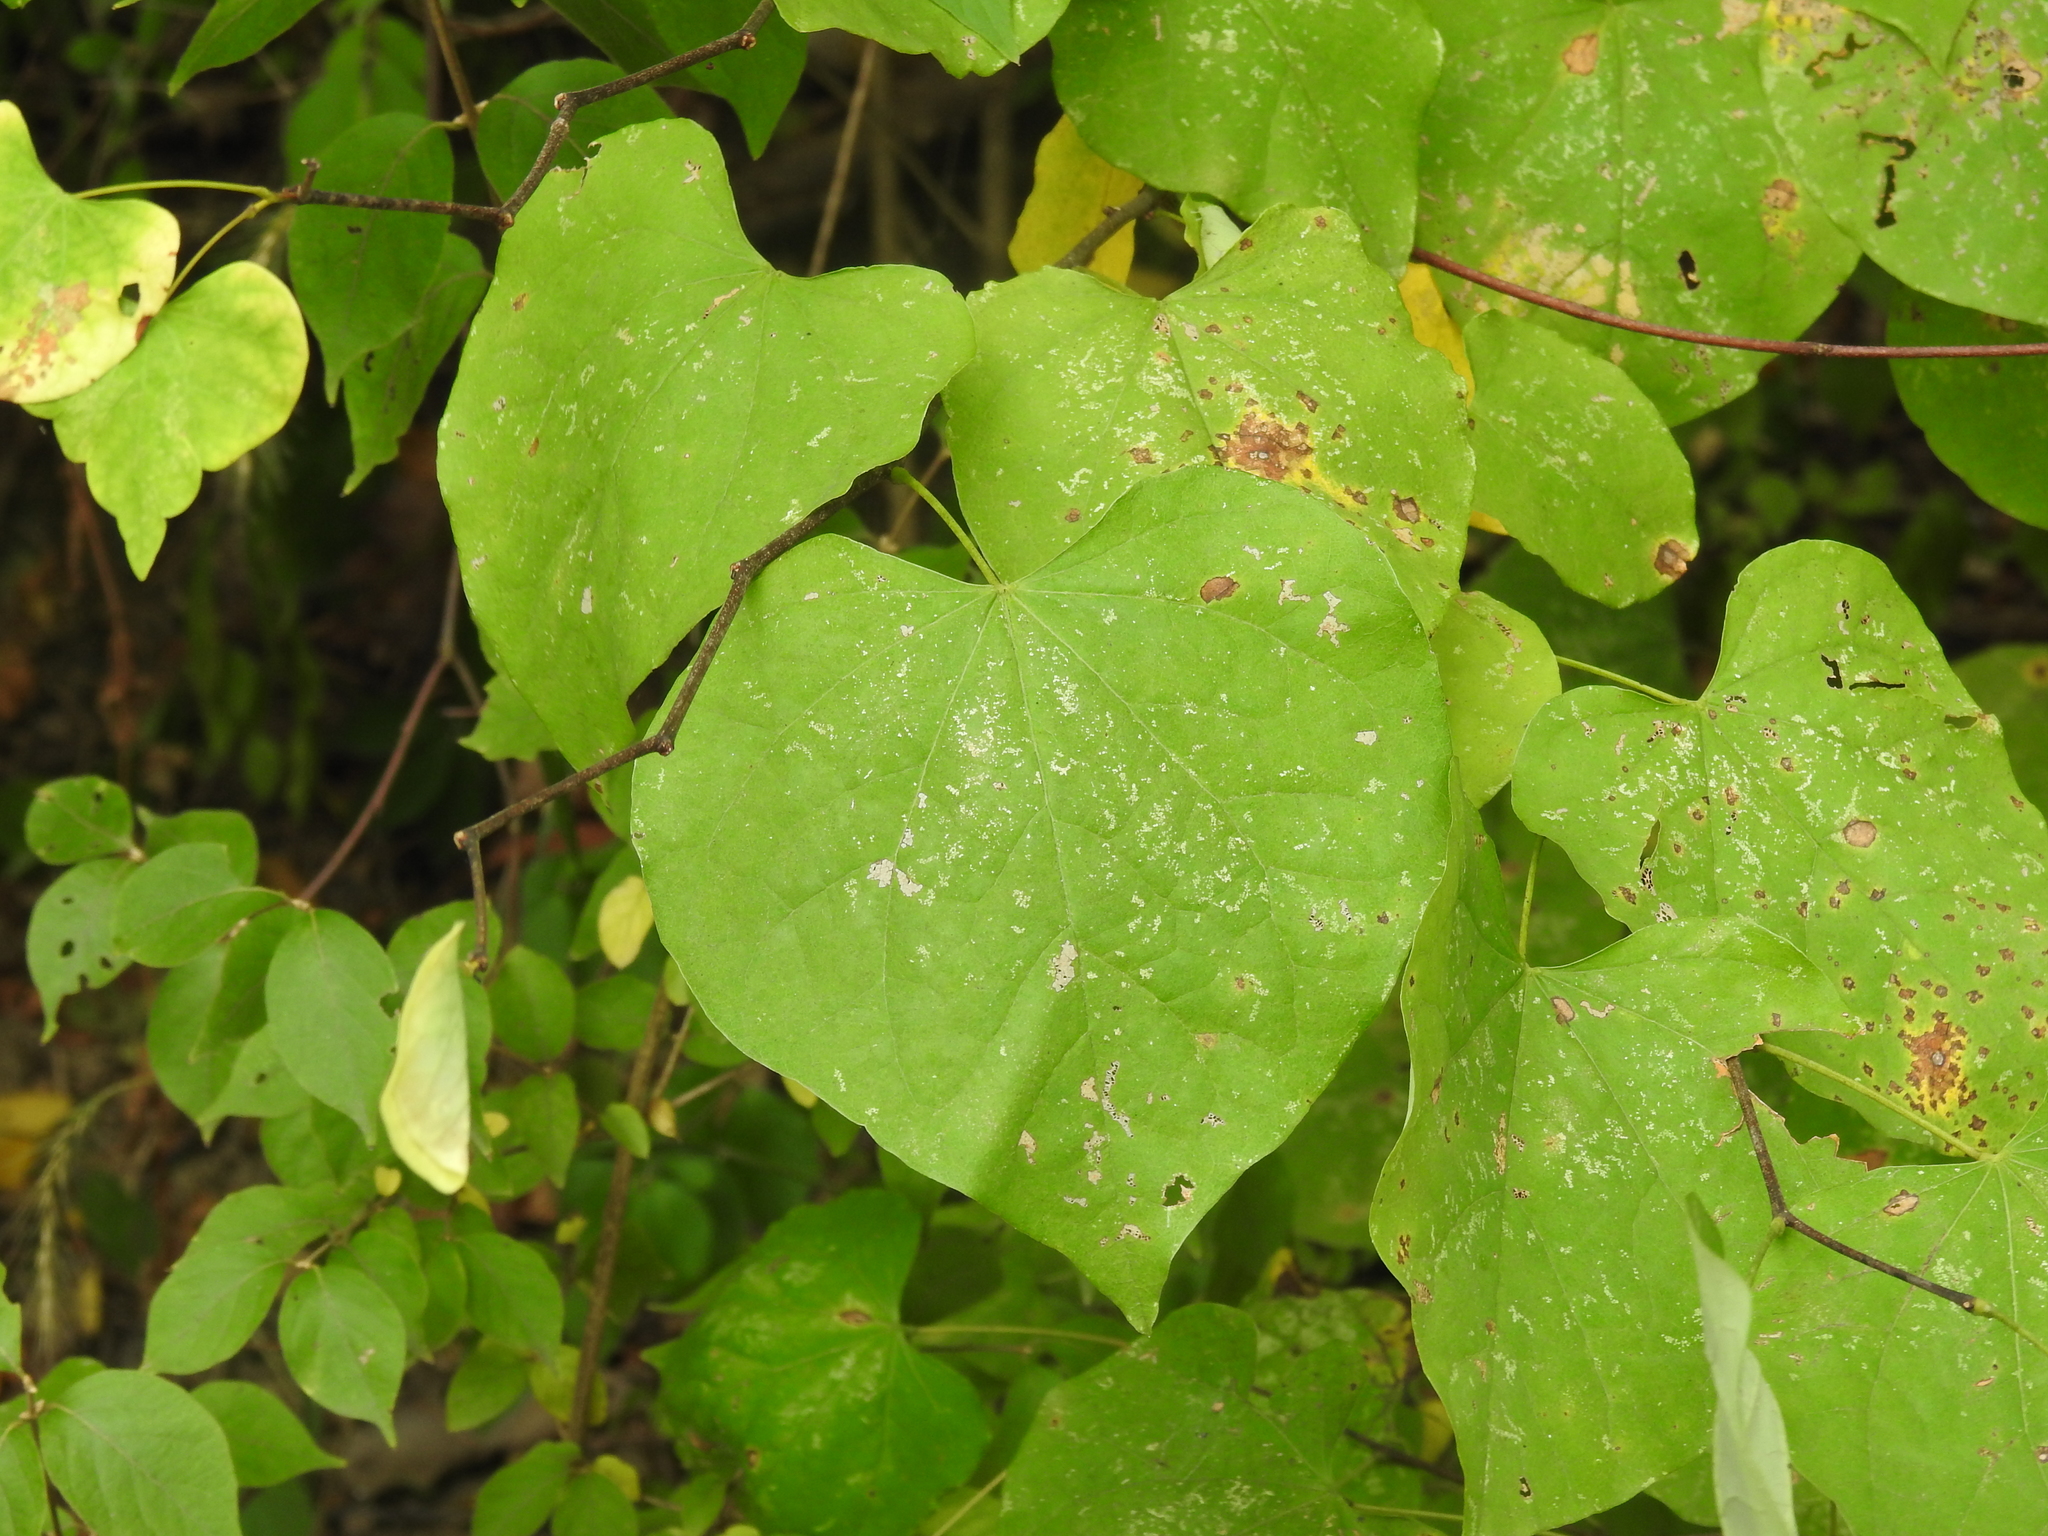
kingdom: Plantae
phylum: Tracheophyta
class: Magnoliopsida
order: Fabales
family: Fabaceae
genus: Cercis
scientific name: Cercis canadensis
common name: Eastern redbud
